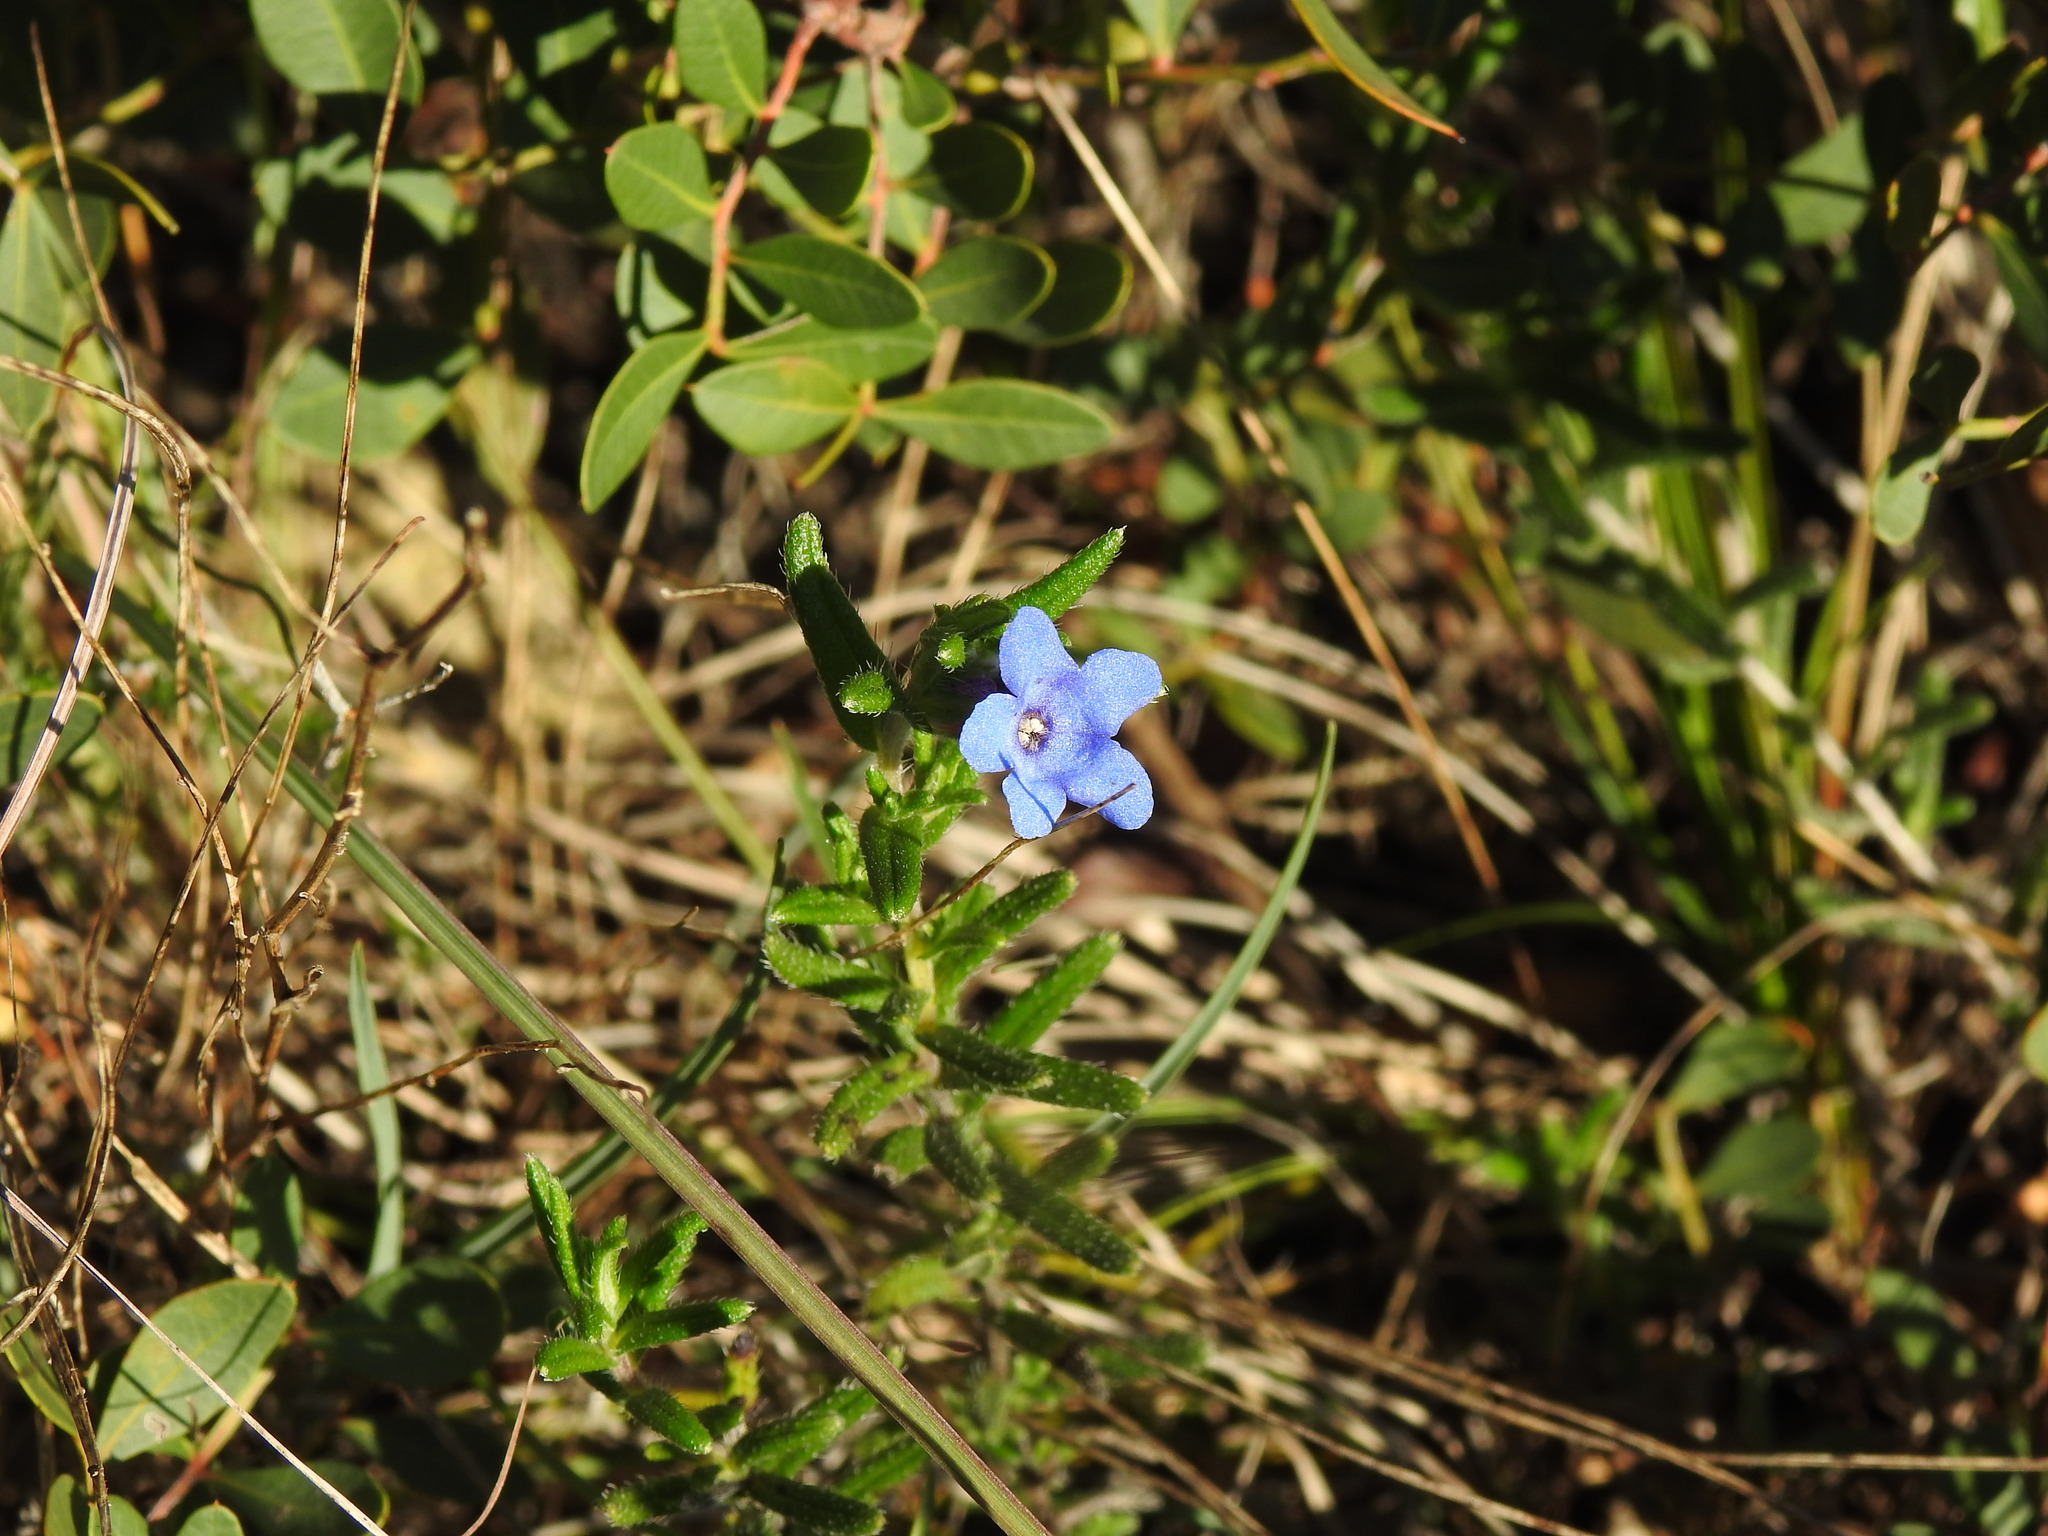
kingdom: Plantae
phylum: Tracheophyta
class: Magnoliopsida
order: Boraginales
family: Boraginaceae
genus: Glandora
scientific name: Glandora prostrata
